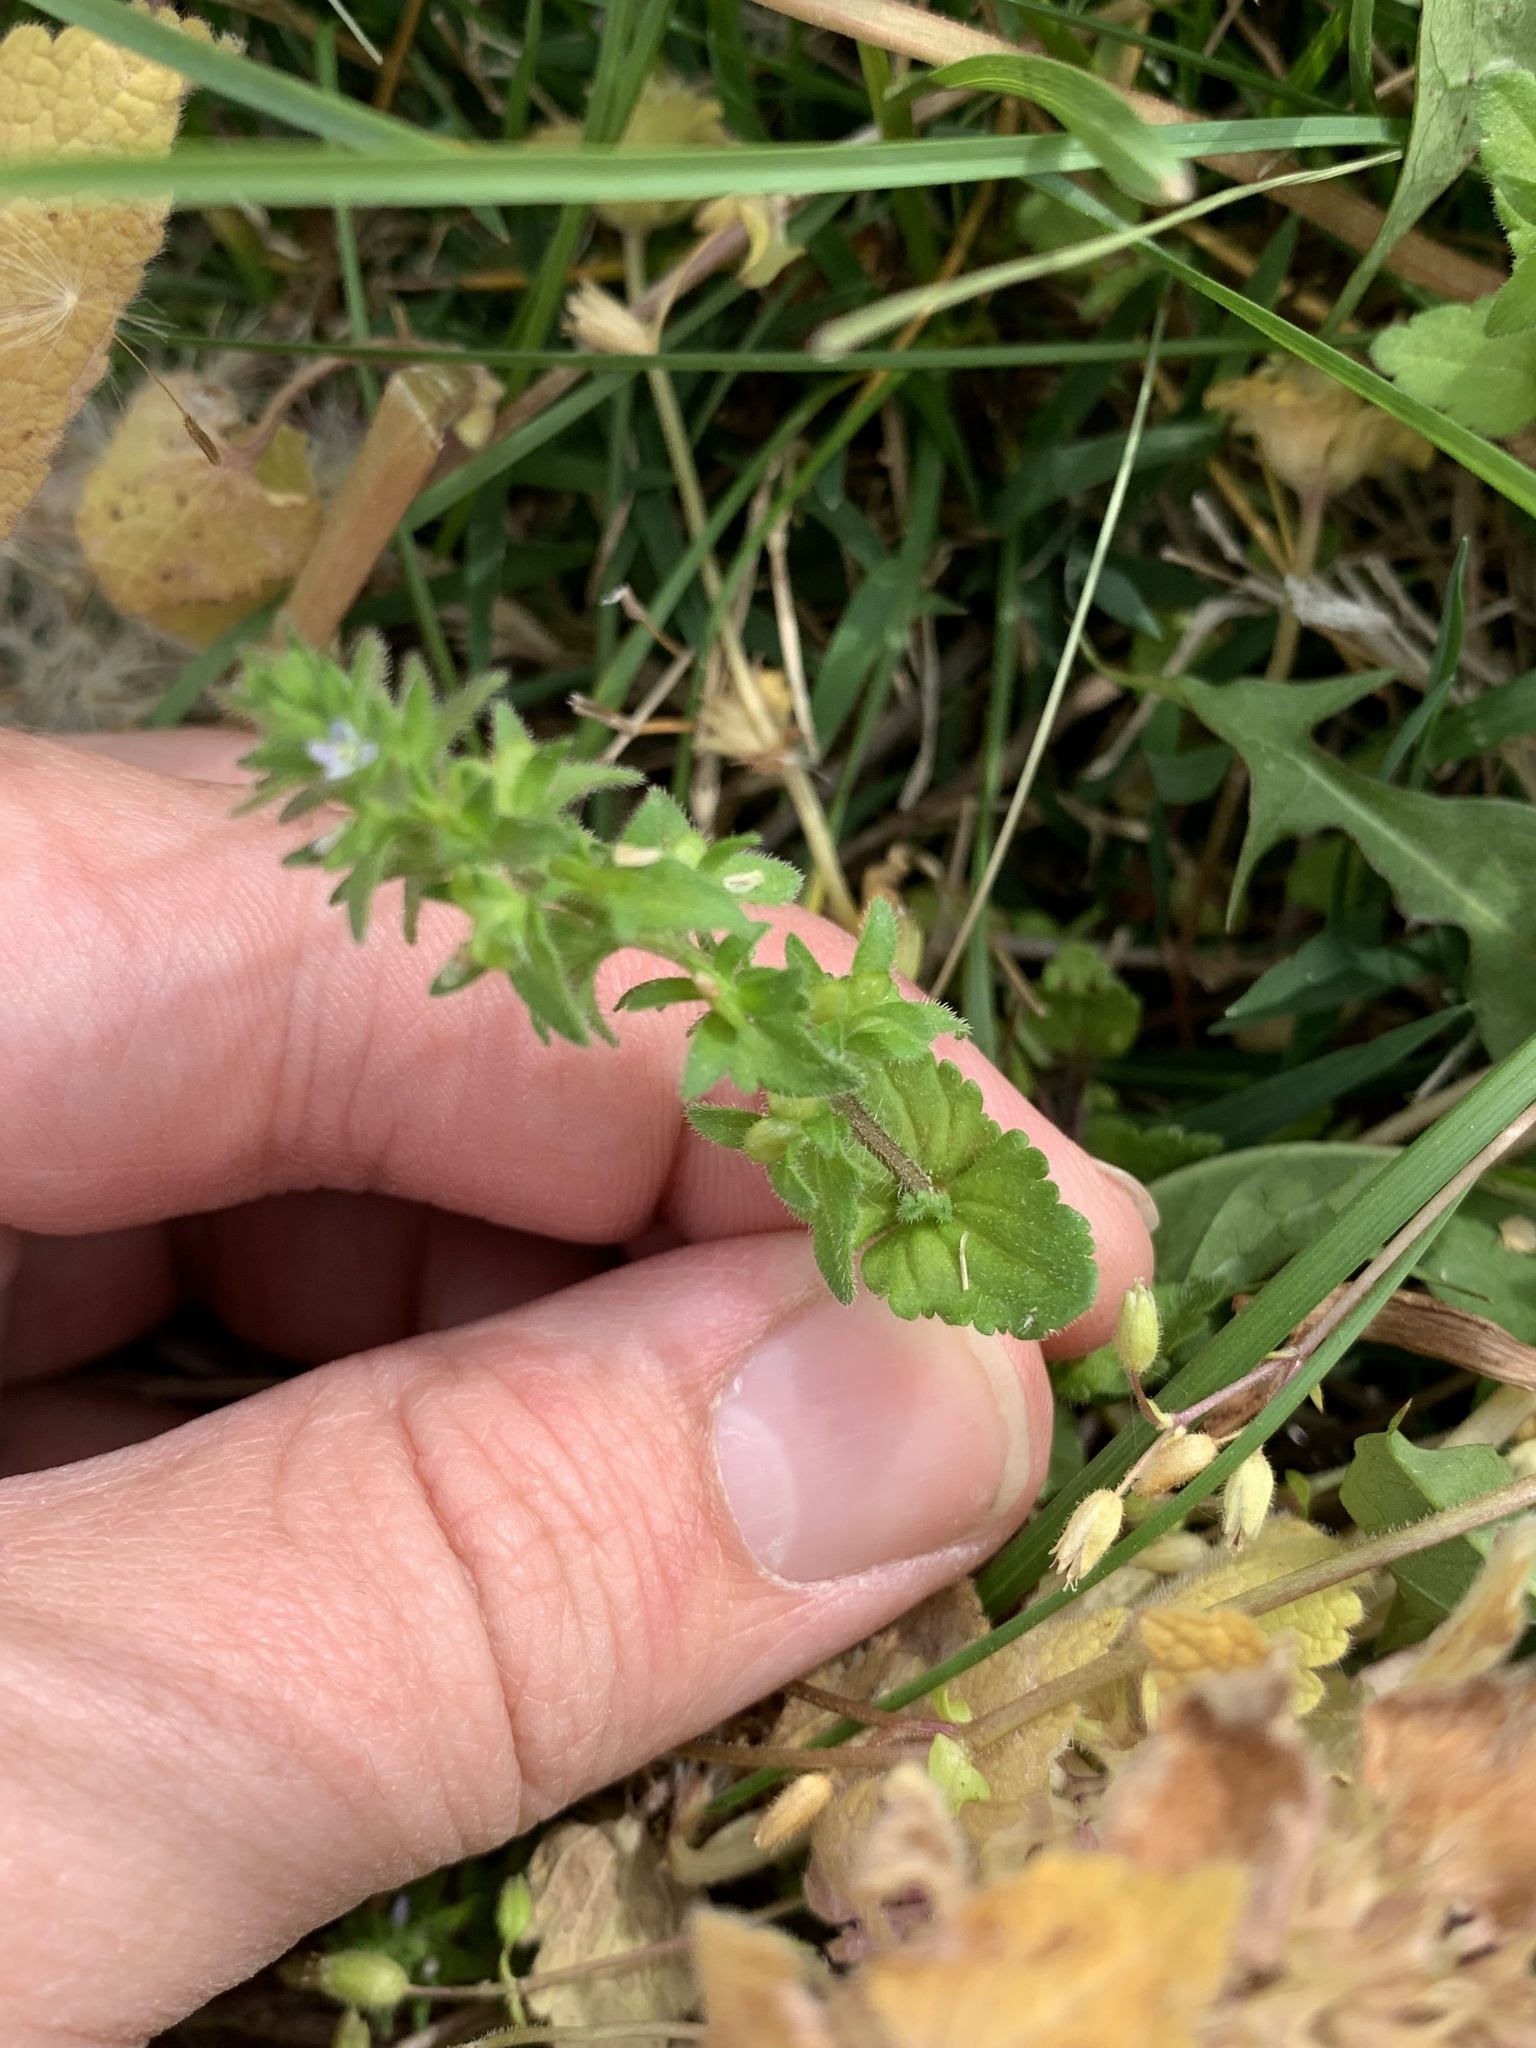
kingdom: Plantae
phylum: Tracheophyta
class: Magnoliopsida
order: Lamiales
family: Plantaginaceae
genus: Veronica
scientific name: Veronica arvensis
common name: Corn speedwell
